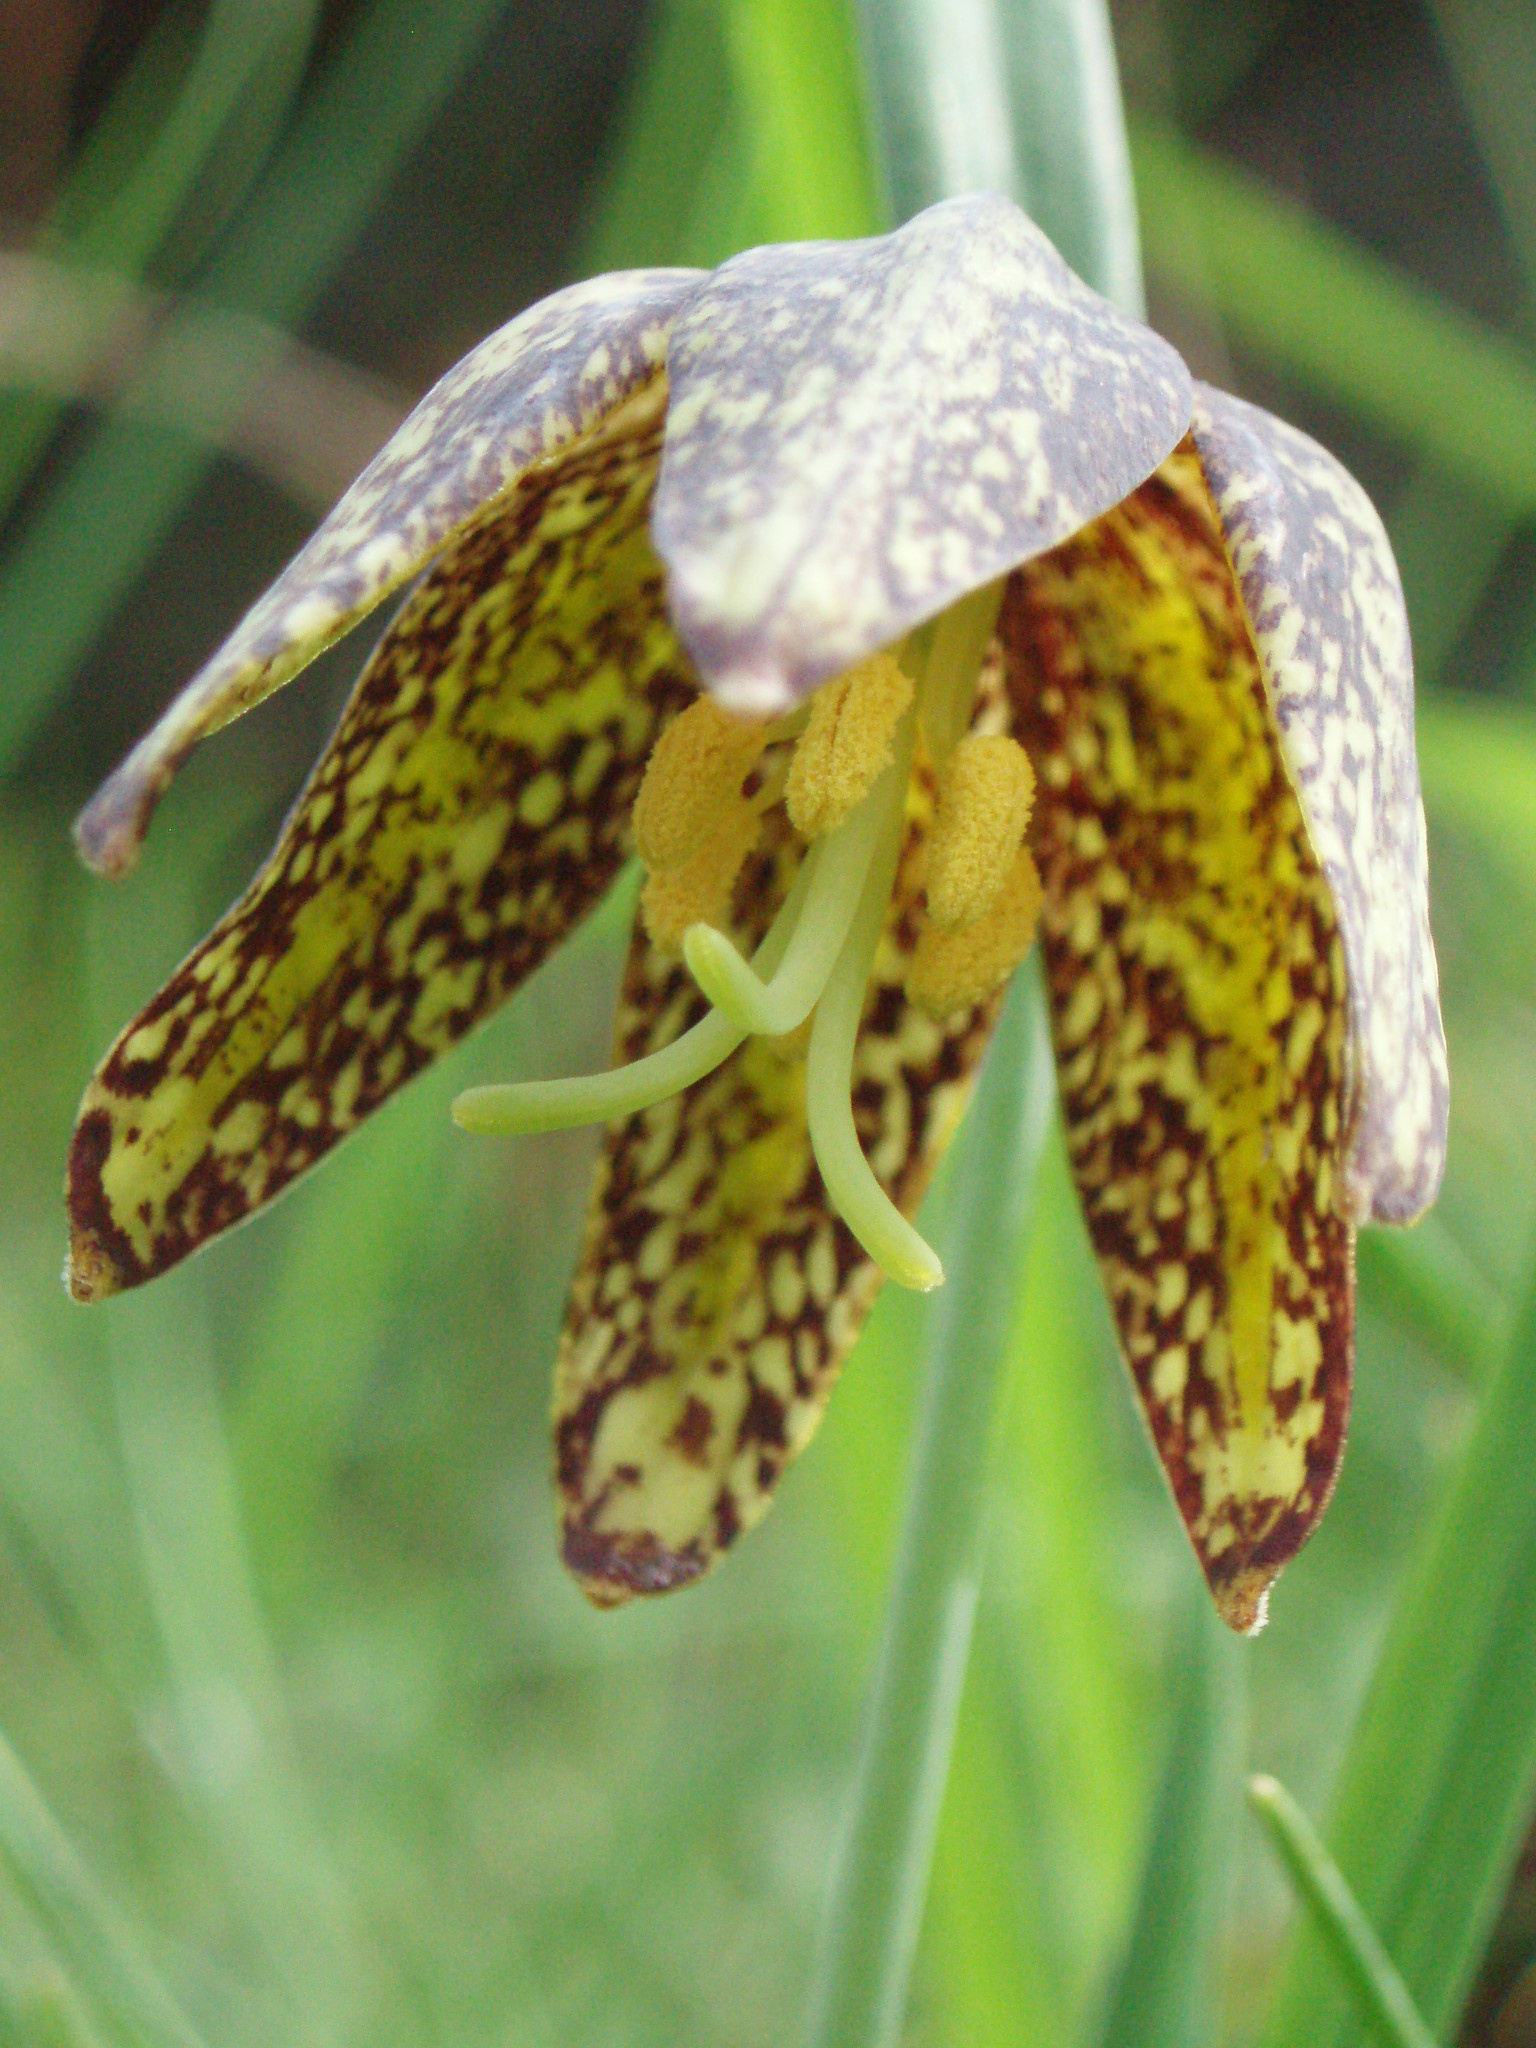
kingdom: Plantae
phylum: Tracheophyta
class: Liliopsida
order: Liliales
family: Liliaceae
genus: Fritillaria
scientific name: Fritillaria affinis
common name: Ojai fritillary
